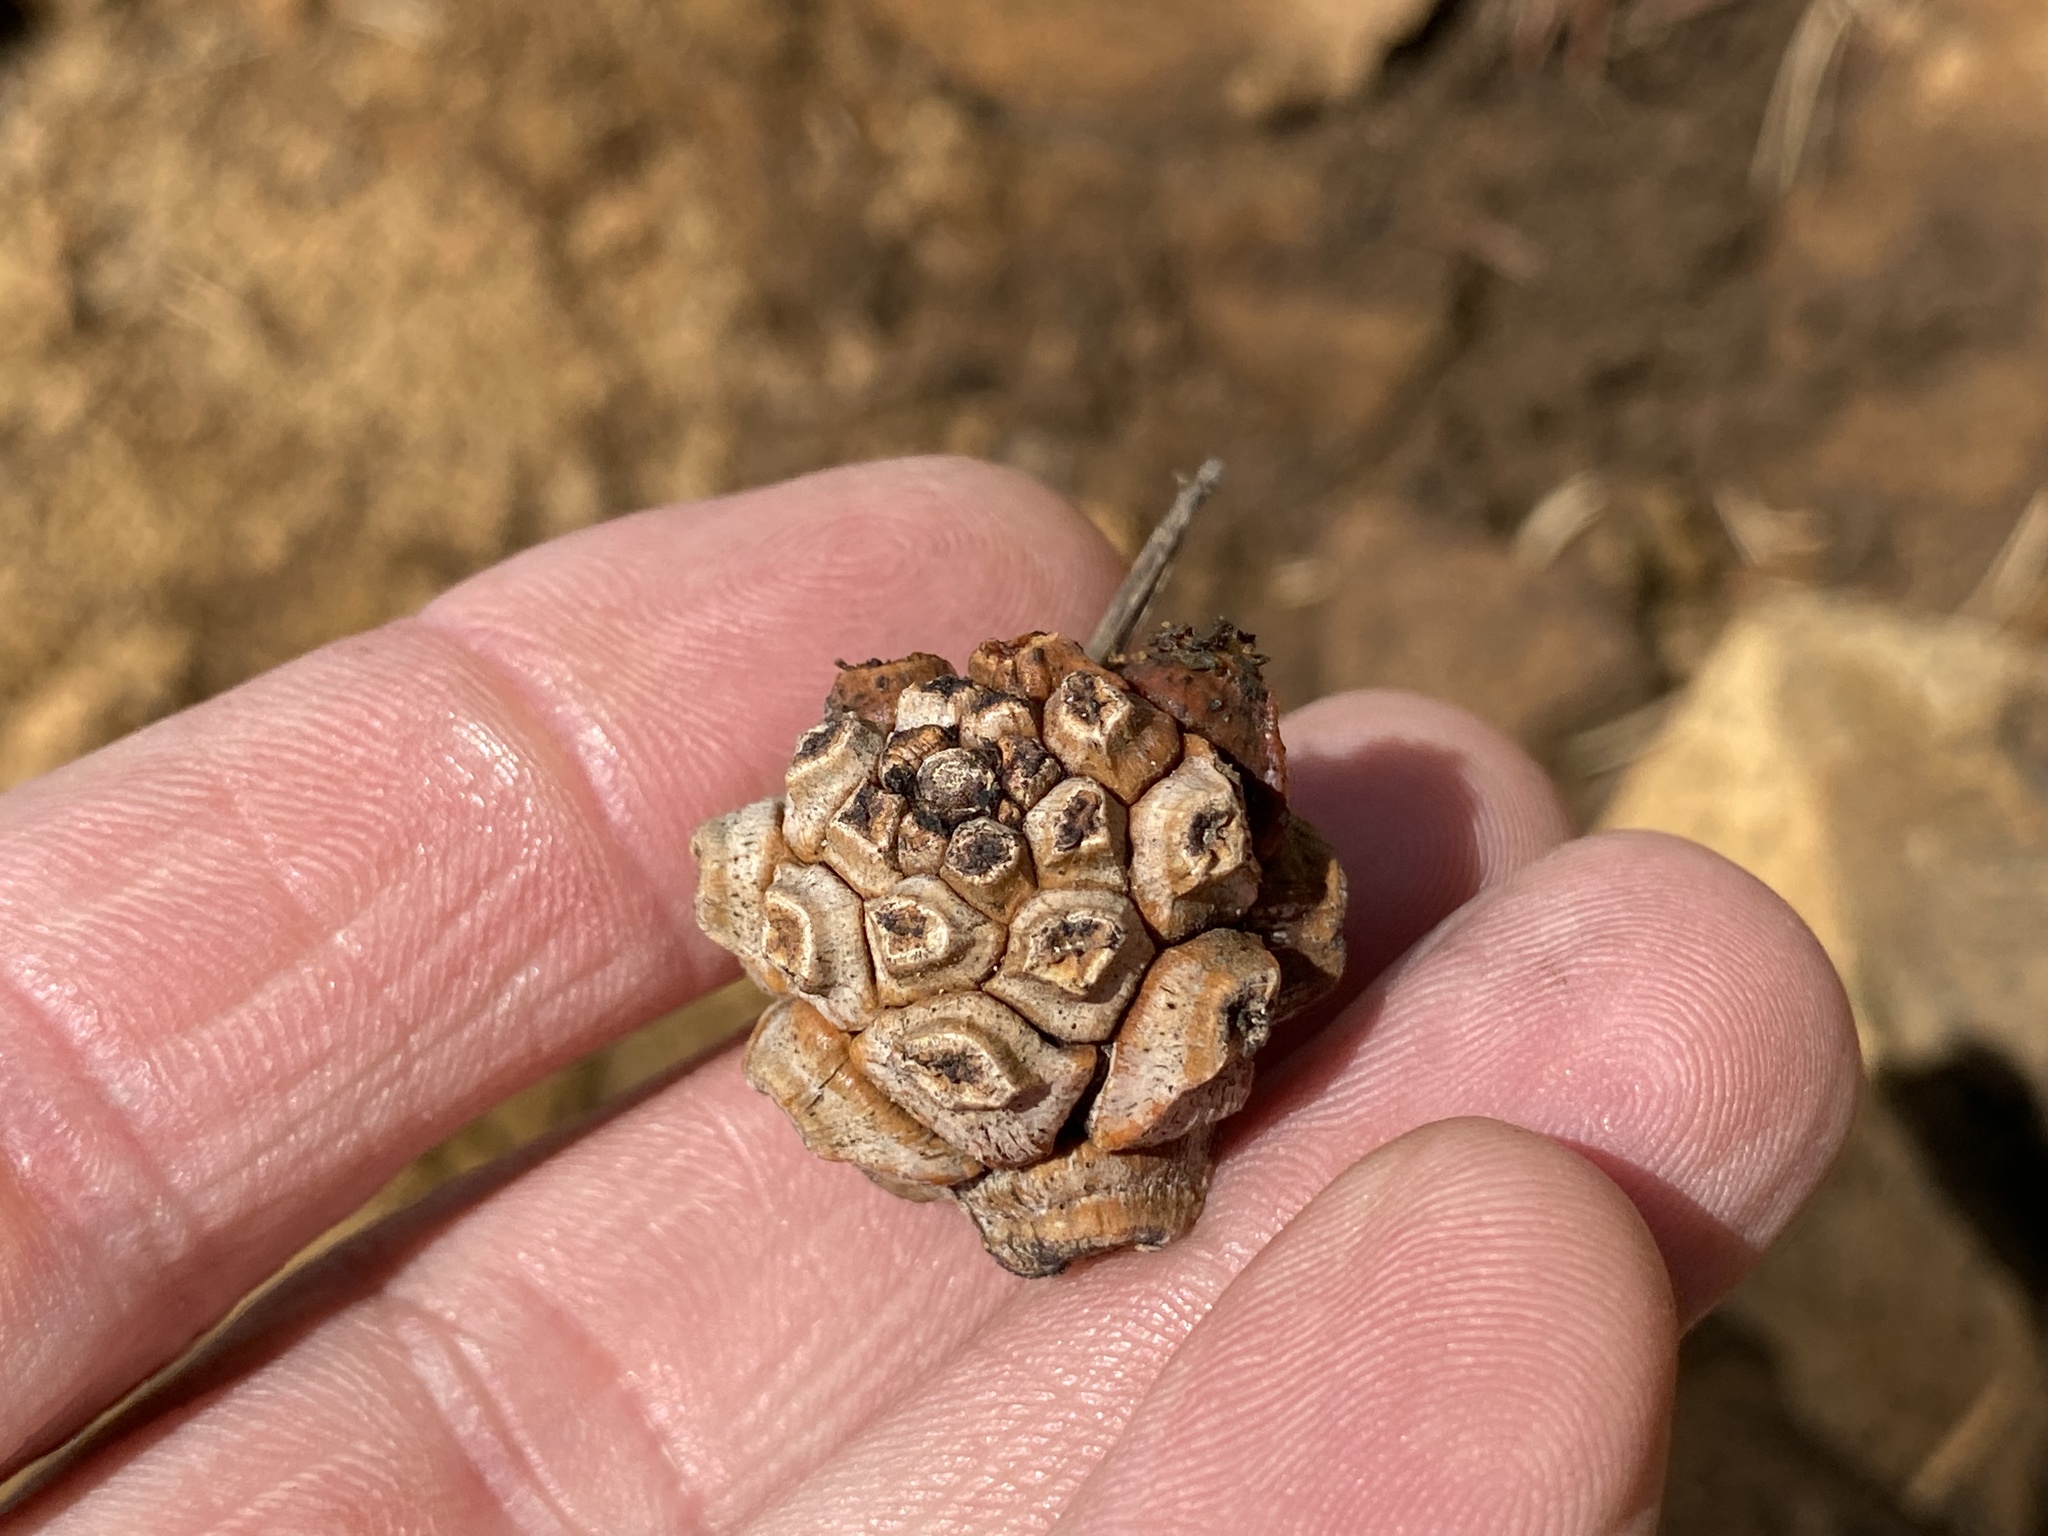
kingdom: Plantae
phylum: Tracheophyta
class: Pinopsida
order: Pinales
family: Pinaceae
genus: Pinus
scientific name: Pinus edulis
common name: Colorado pinyon
